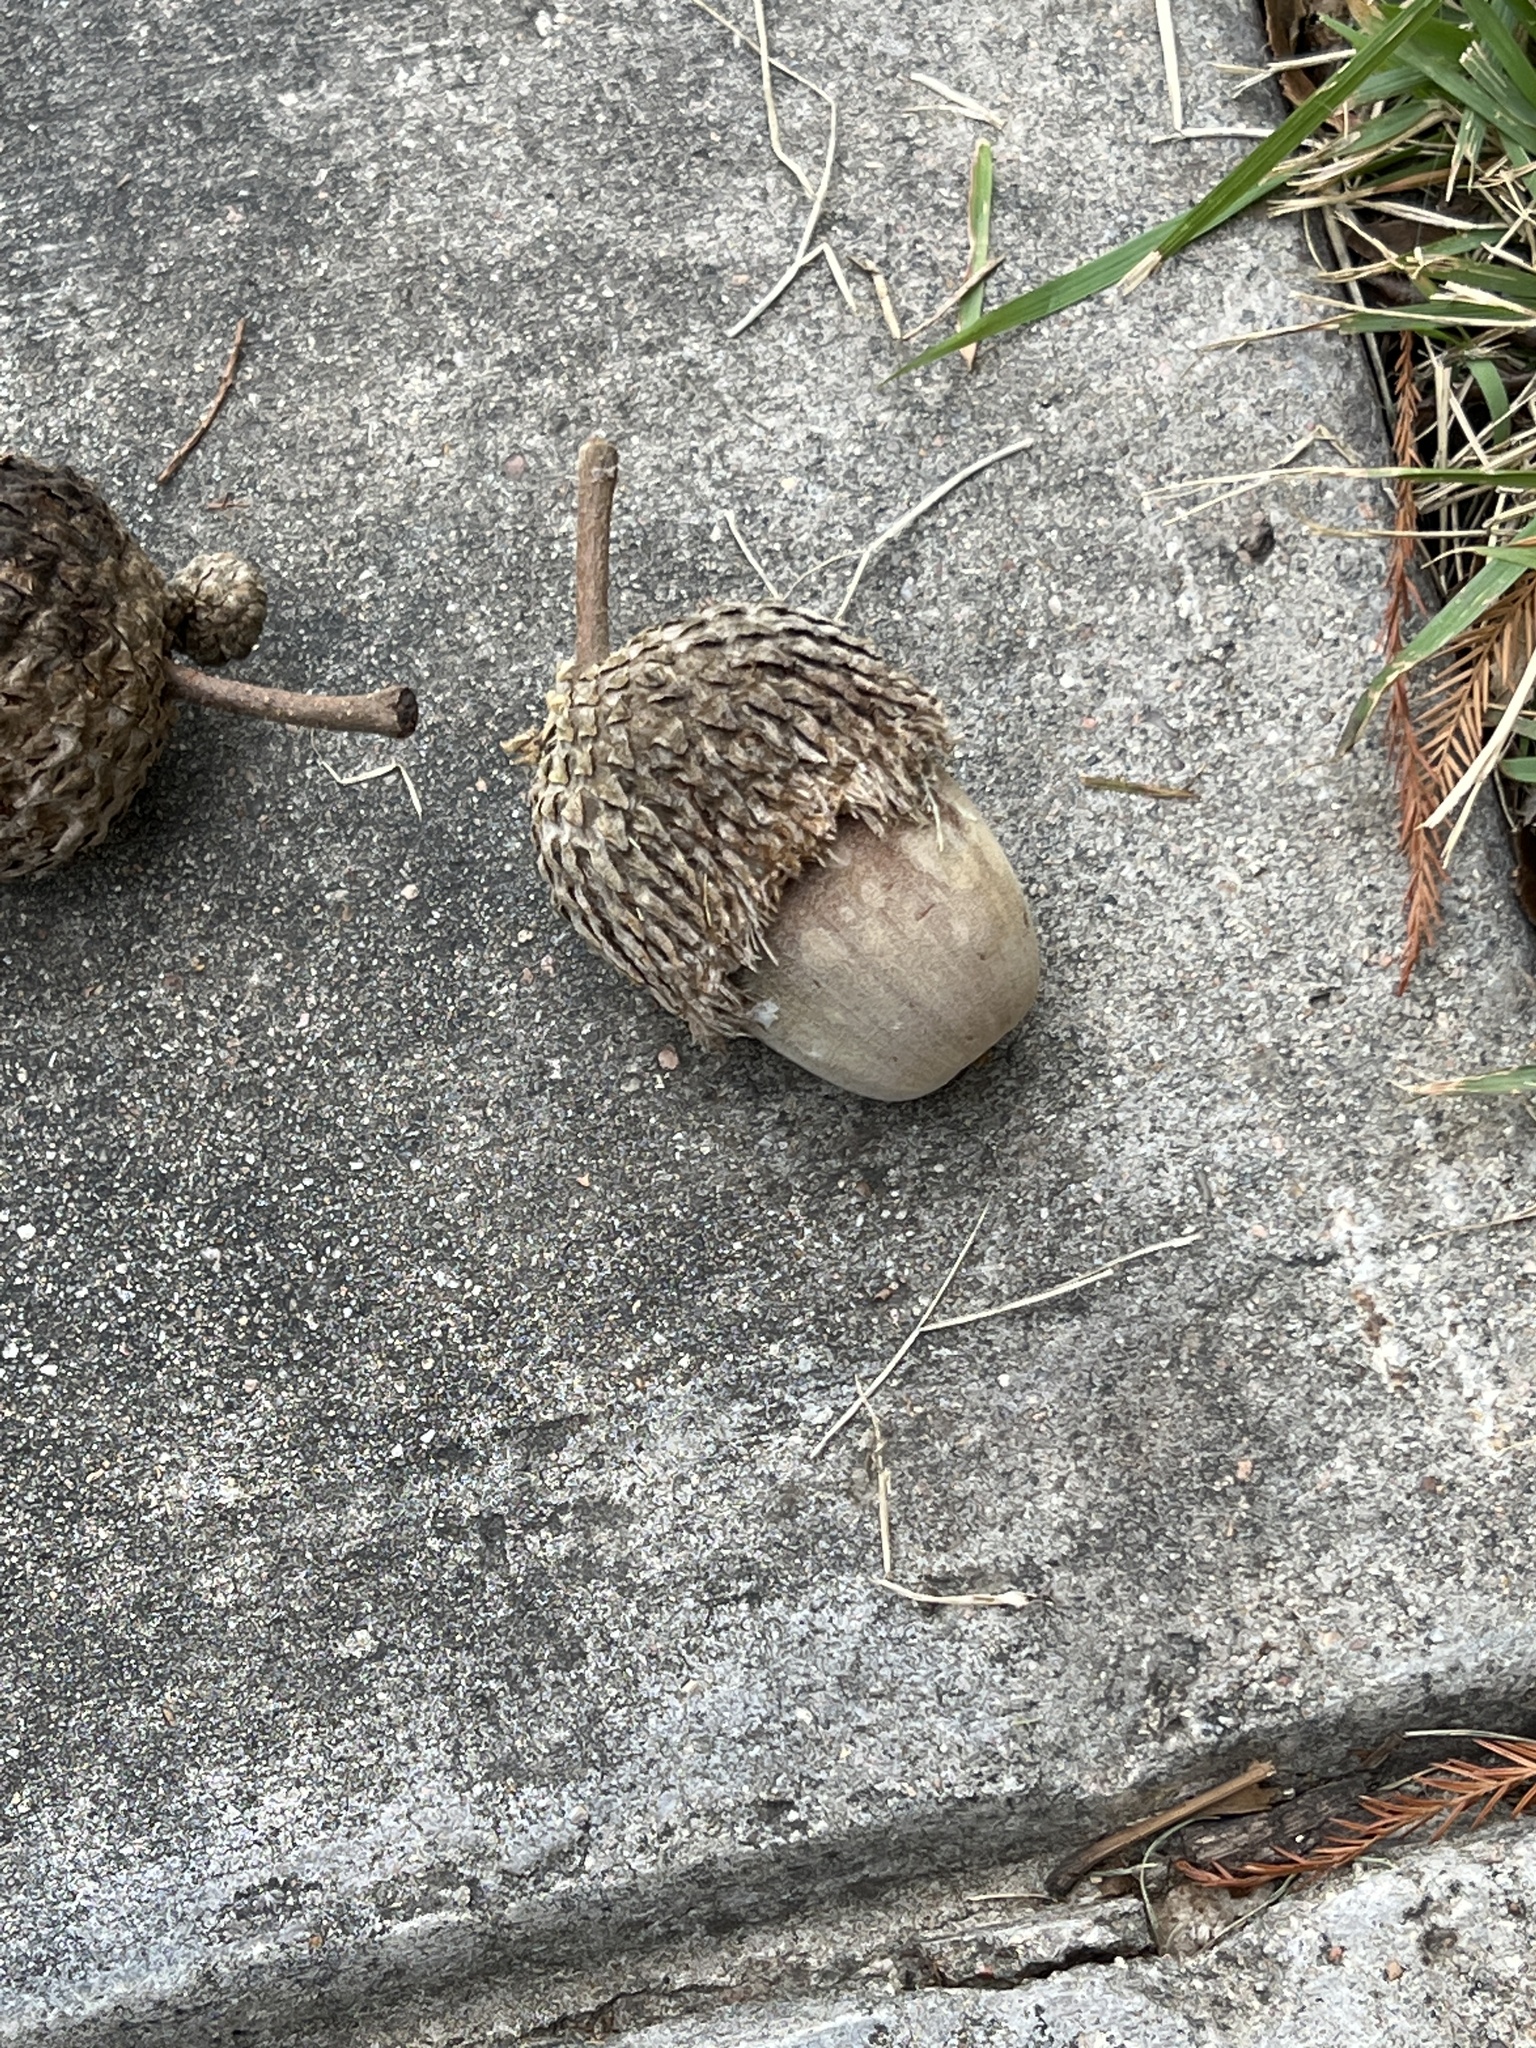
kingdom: Plantae
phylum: Tracheophyta
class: Magnoliopsida
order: Fagales
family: Fagaceae
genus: Quercus
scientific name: Quercus macrocarpa
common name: Bur oak
